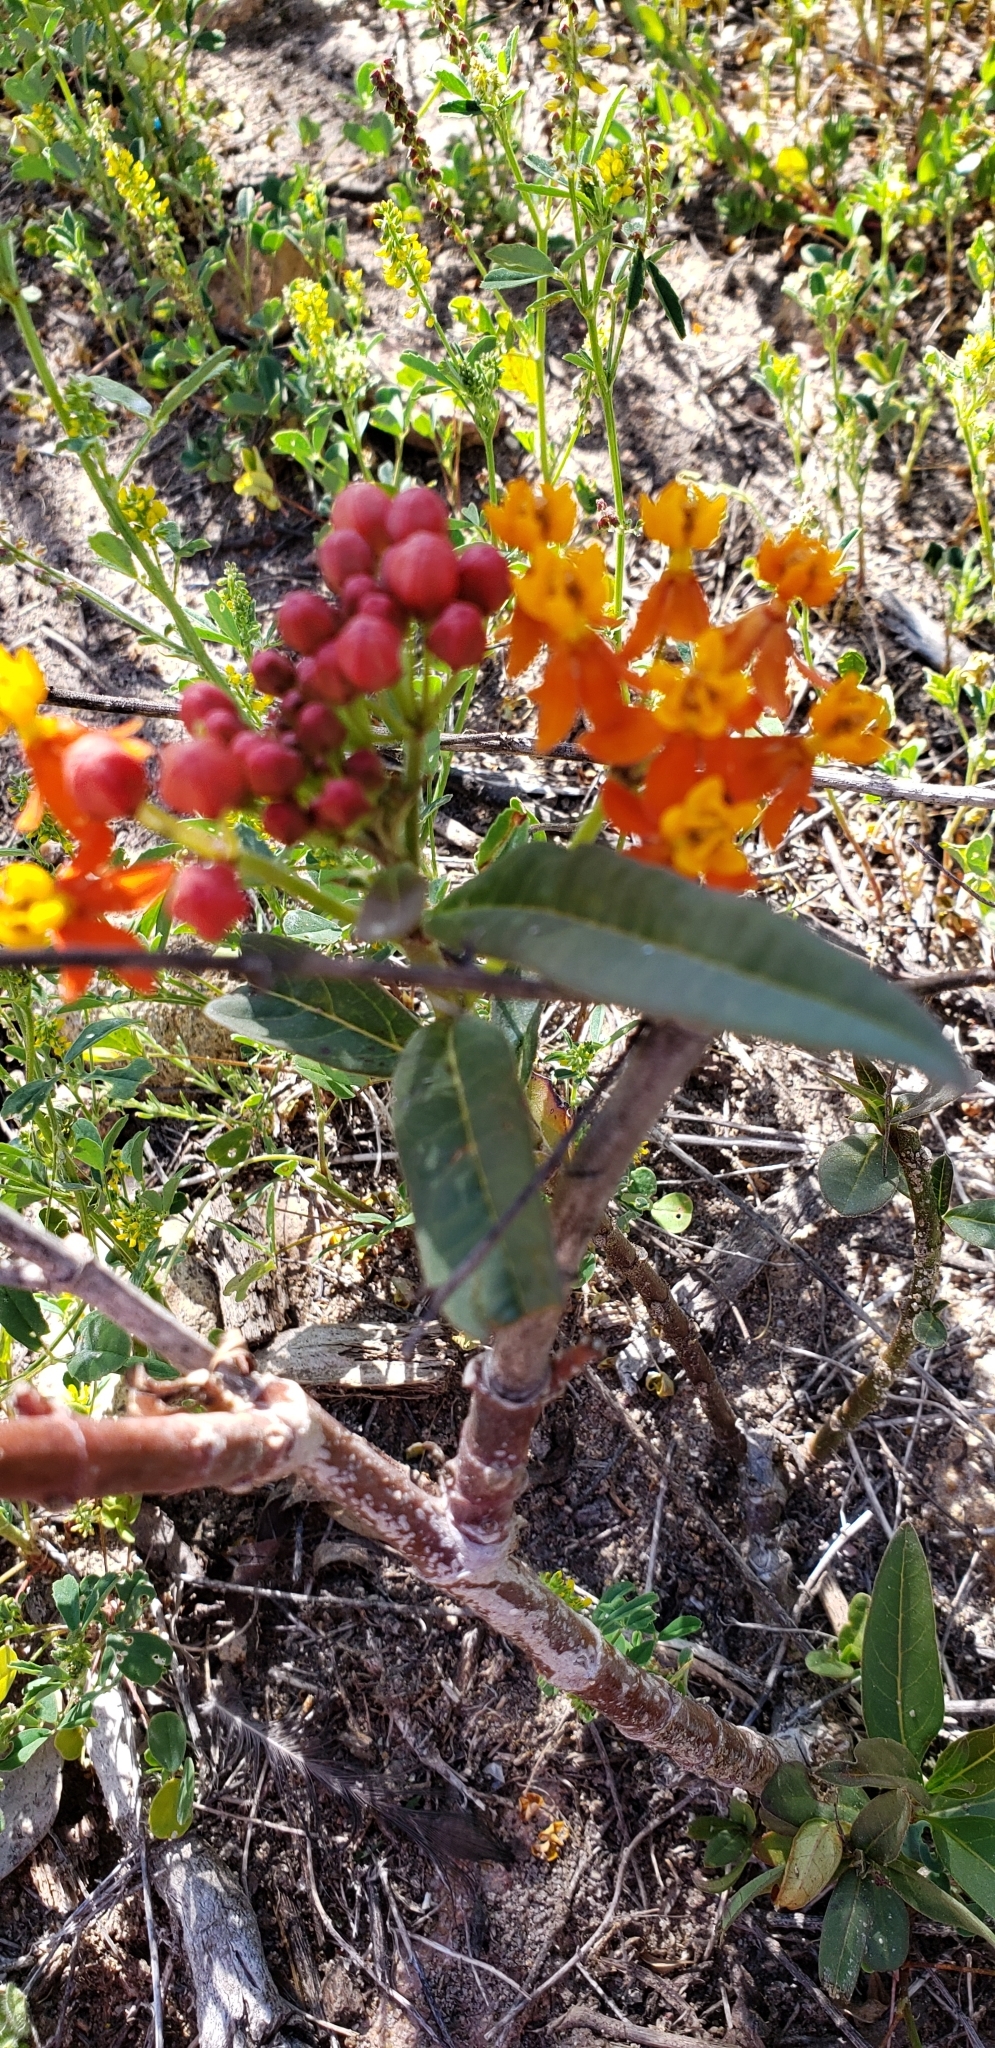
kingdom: Plantae
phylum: Tracheophyta
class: Magnoliopsida
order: Gentianales
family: Apocynaceae
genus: Asclepias
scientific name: Asclepias curassavica
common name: Bloodflower
